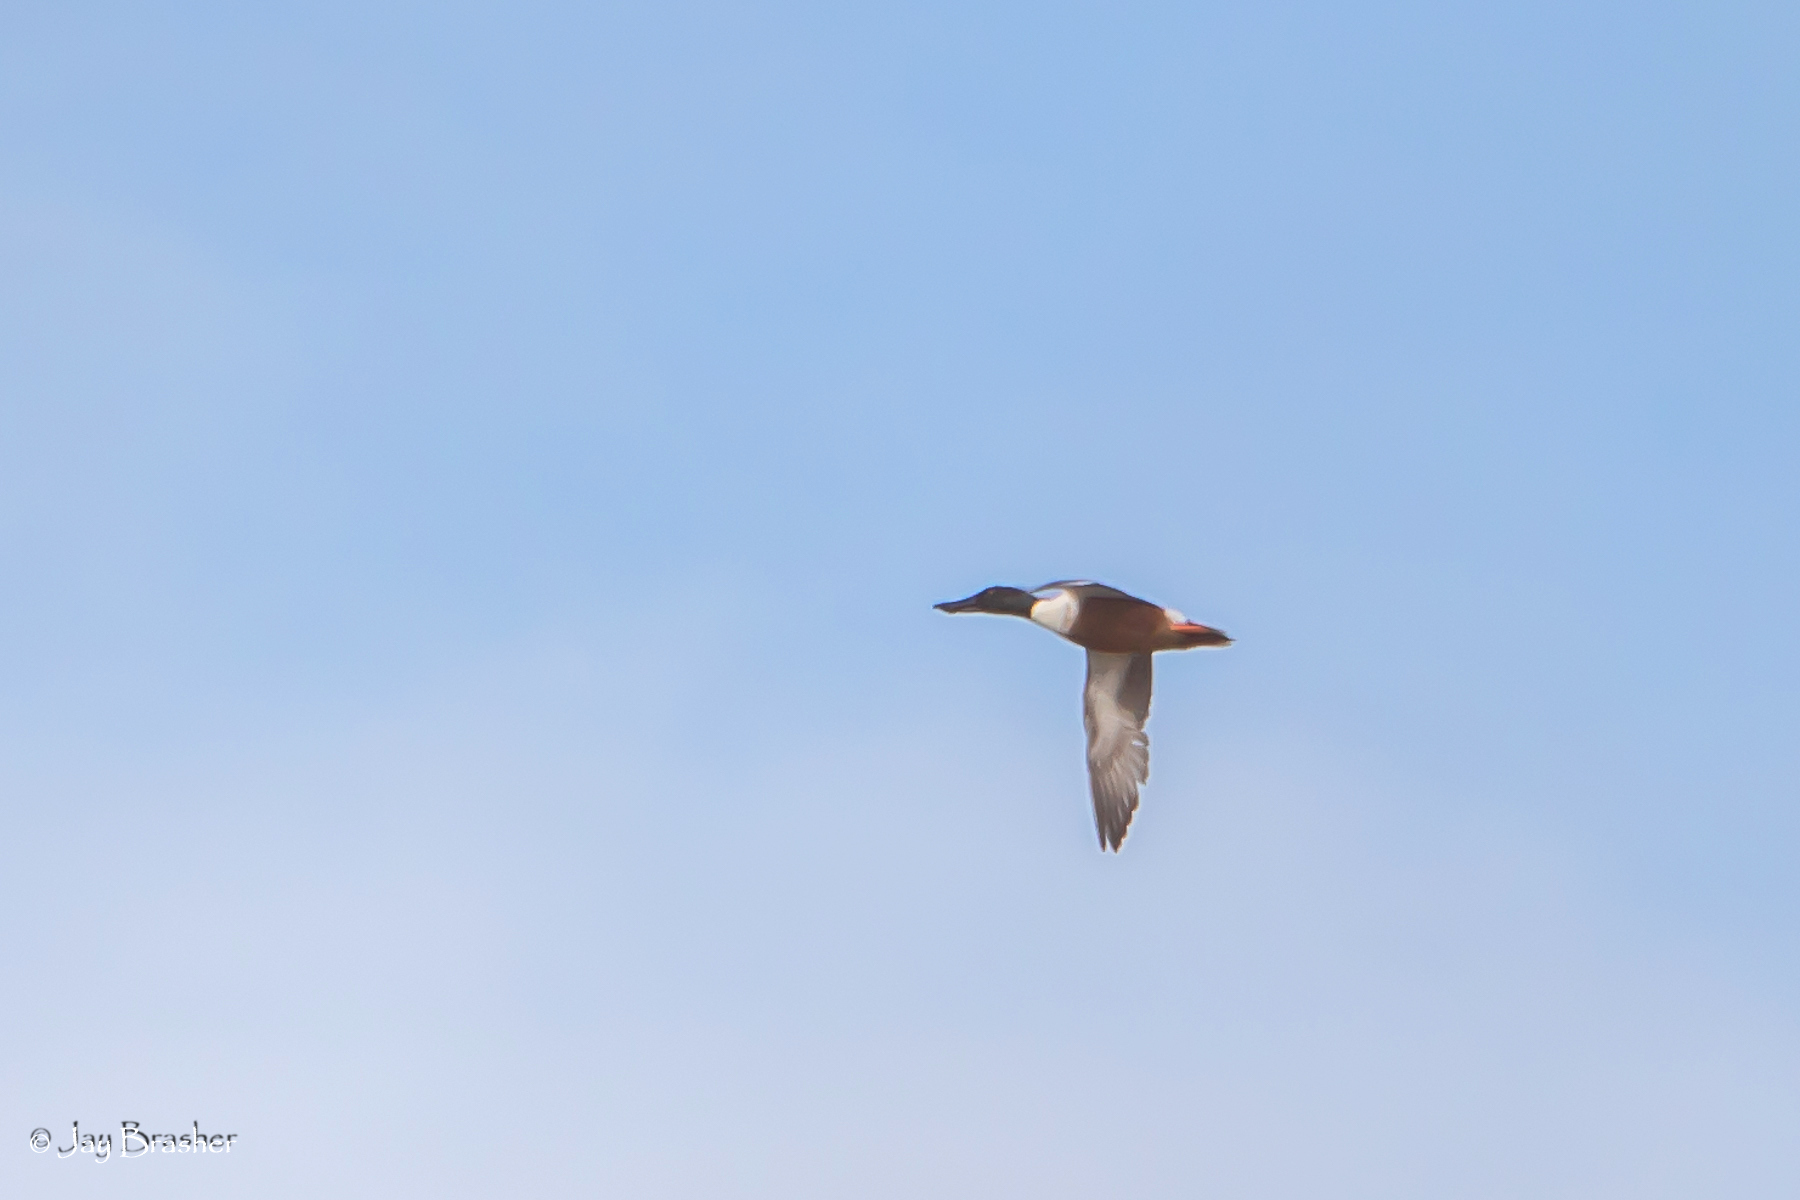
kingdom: Animalia
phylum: Chordata
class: Aves
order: Anseriformes
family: Anatidae
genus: Spatula
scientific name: Spatula clypeata
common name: Northern shoveler
